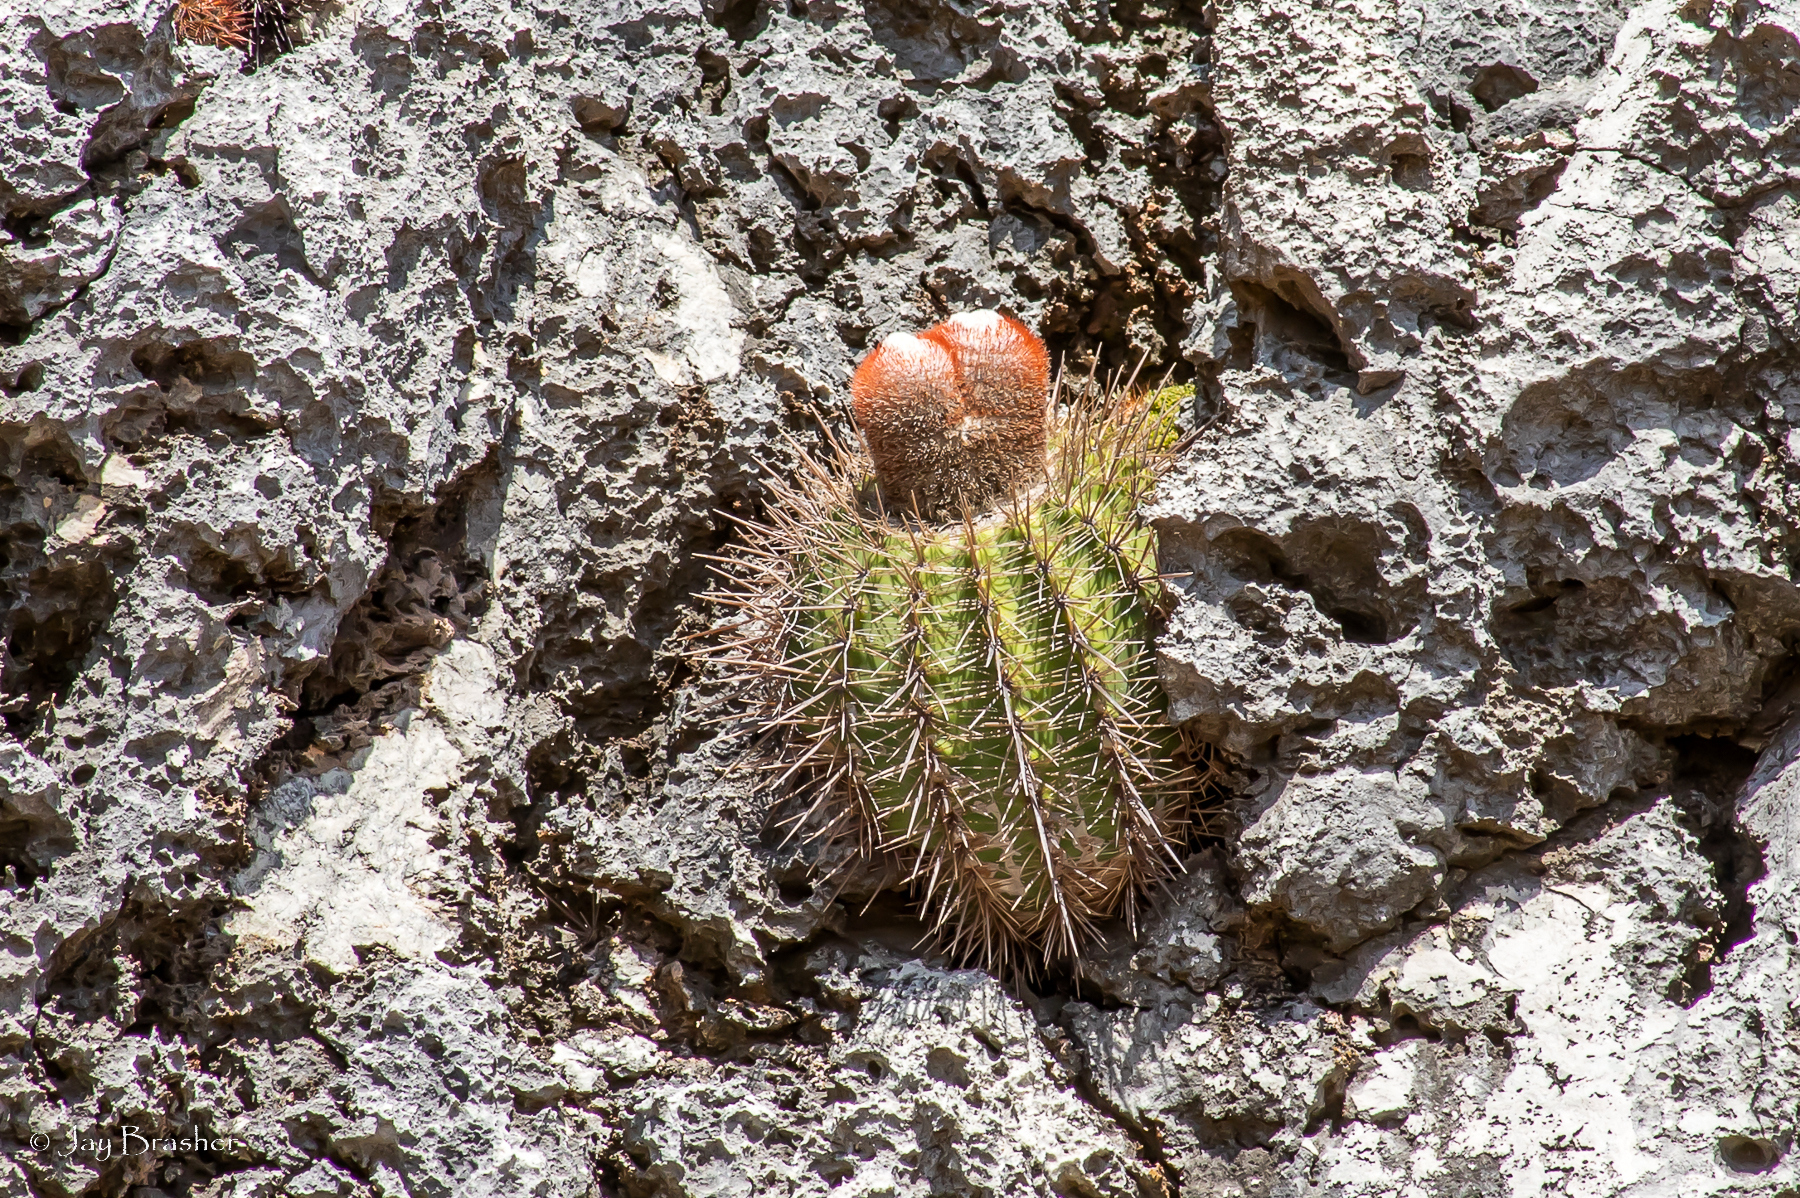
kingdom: Plantae
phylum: Tracheophyta
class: Magnoliopsida
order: Caryophyllales
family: Cactaceae
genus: Melocactus
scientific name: Melocactus macracanthos
